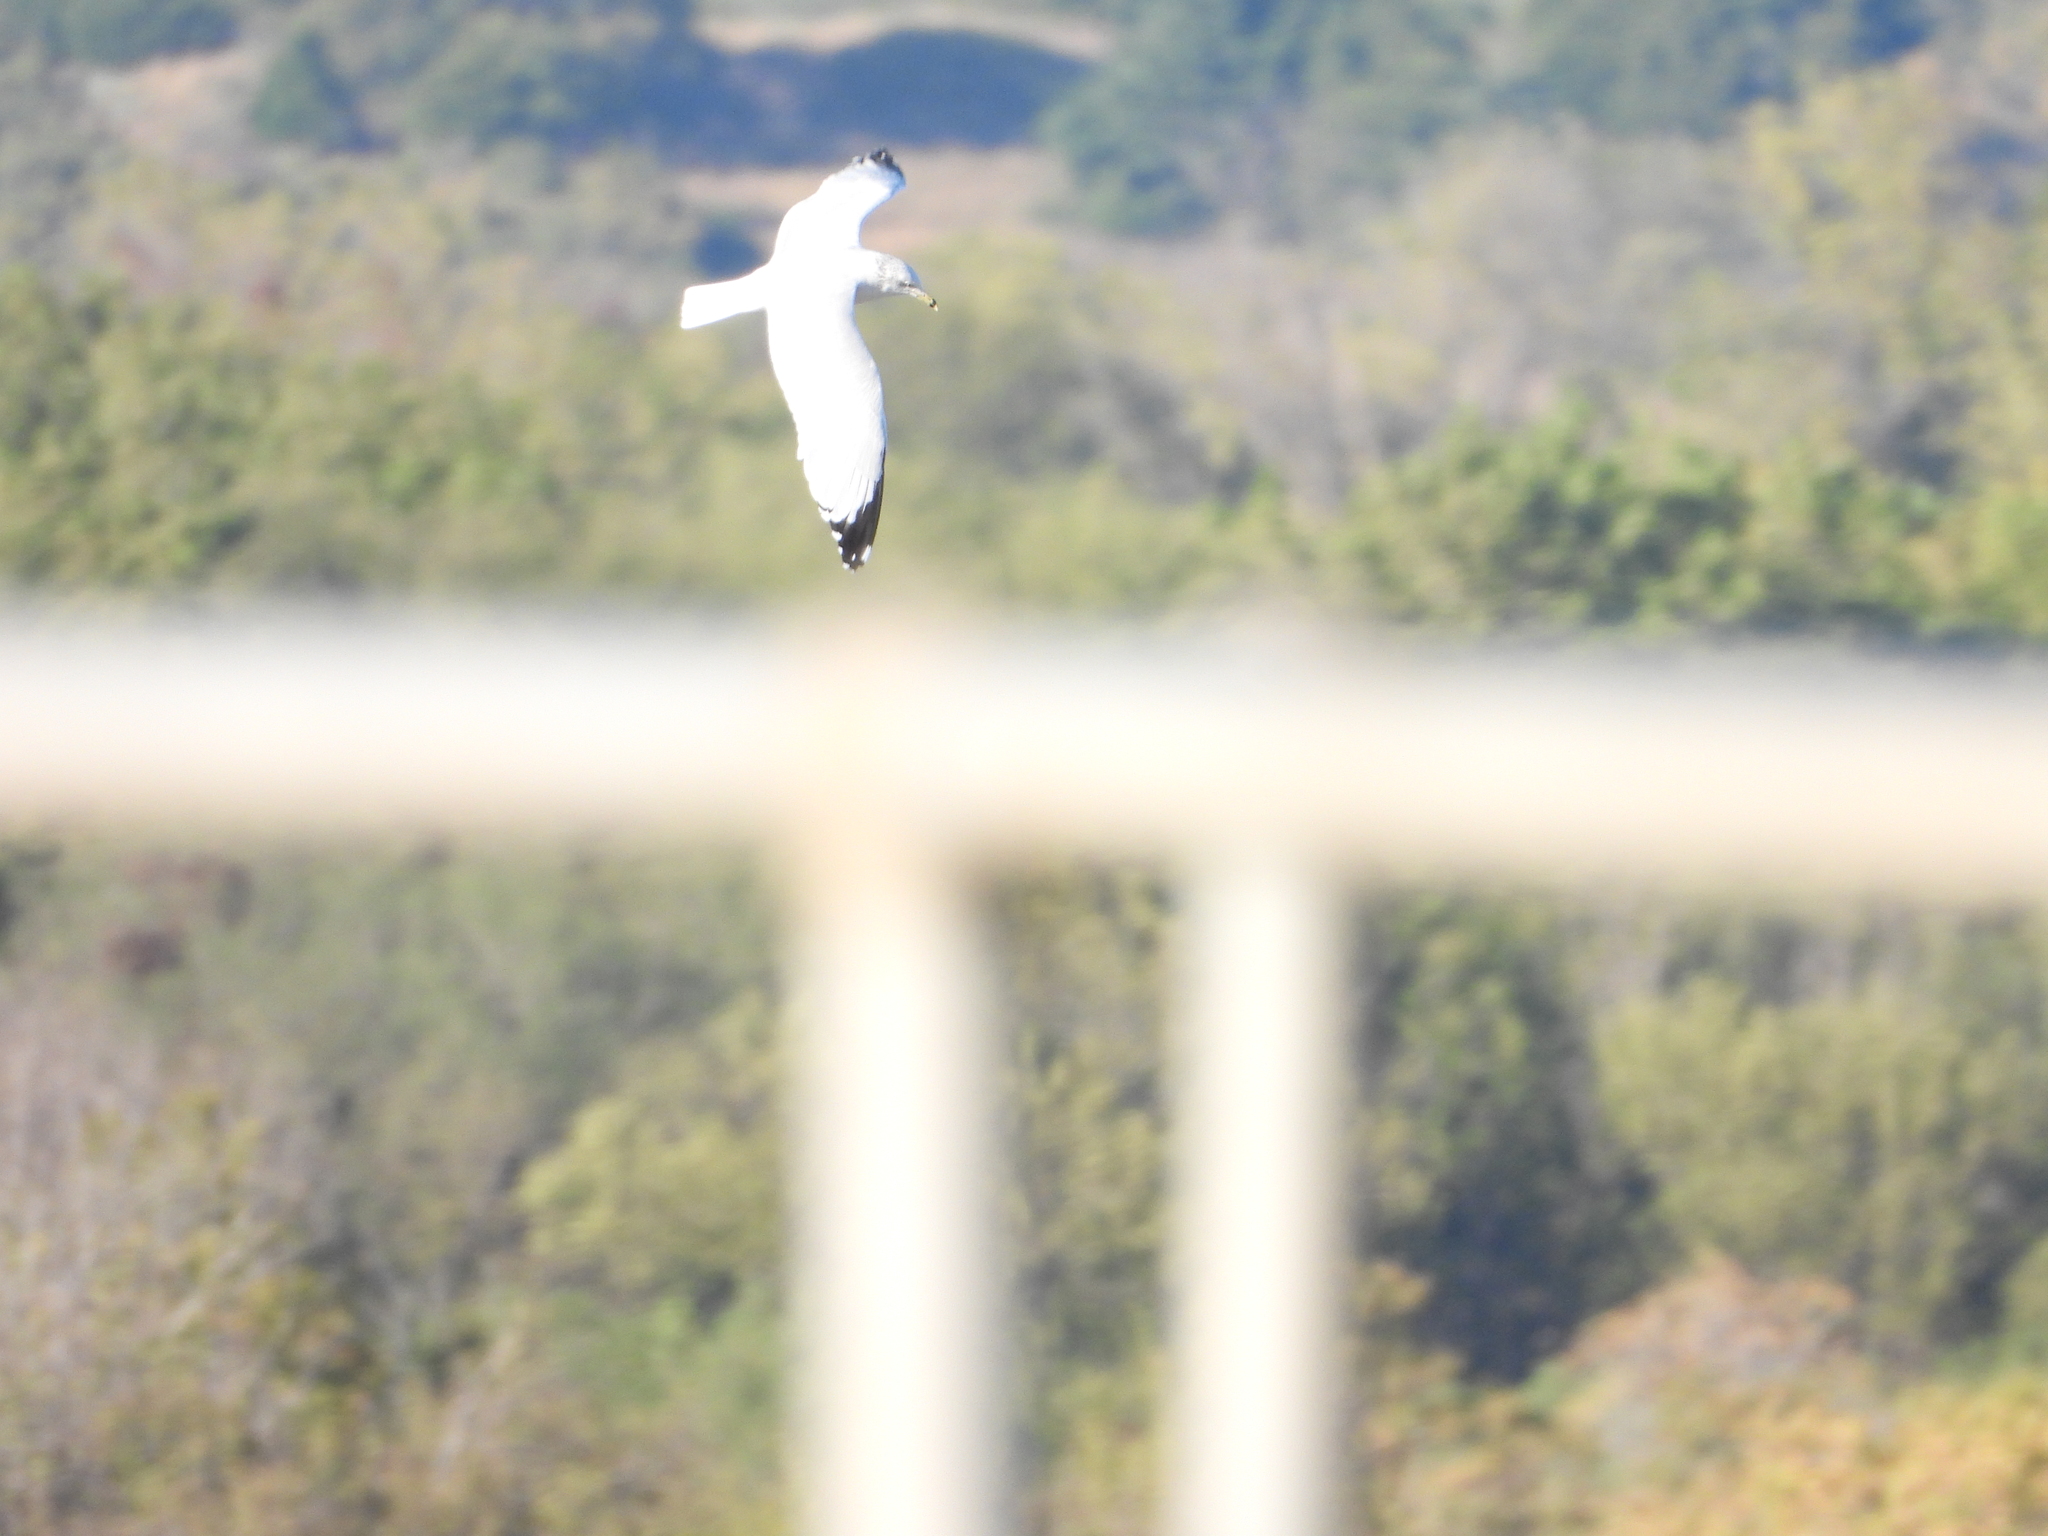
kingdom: Animalia
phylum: Chordata
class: Aves
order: Charadriiformes
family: Laridae
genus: Larus
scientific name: Larus delawarensis
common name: Ring-billed gull
